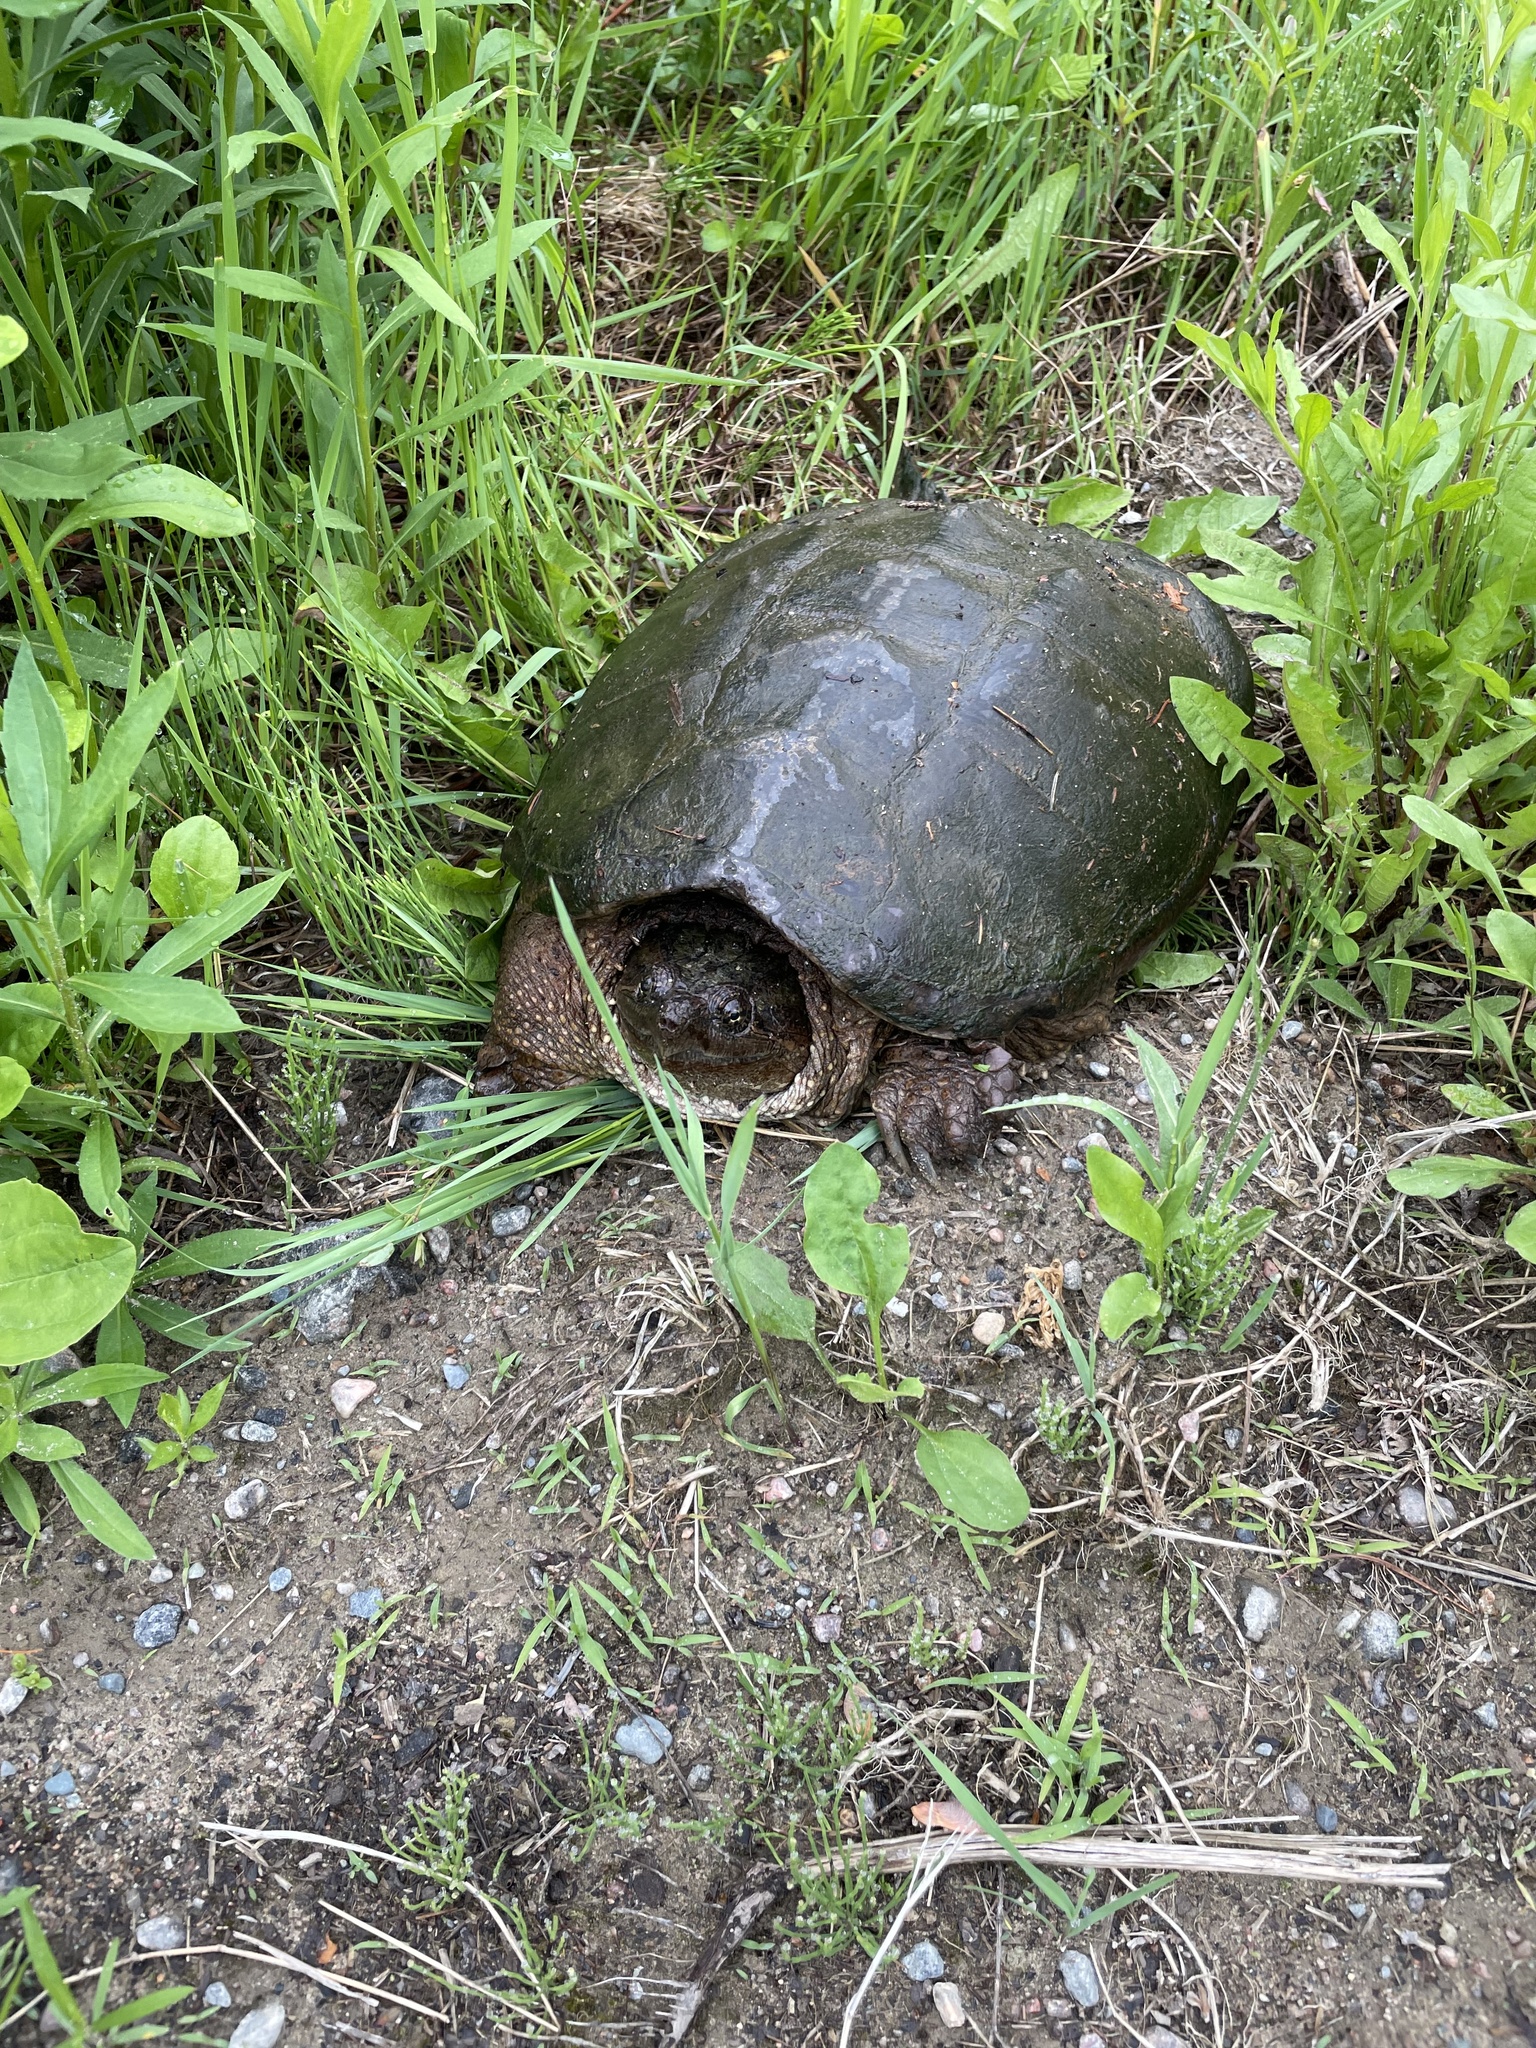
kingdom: Animalia
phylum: Chordata
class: Testudines
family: Chelydridae
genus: Chelydra
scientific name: Chelydra serpentina
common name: Common snapping turtle
